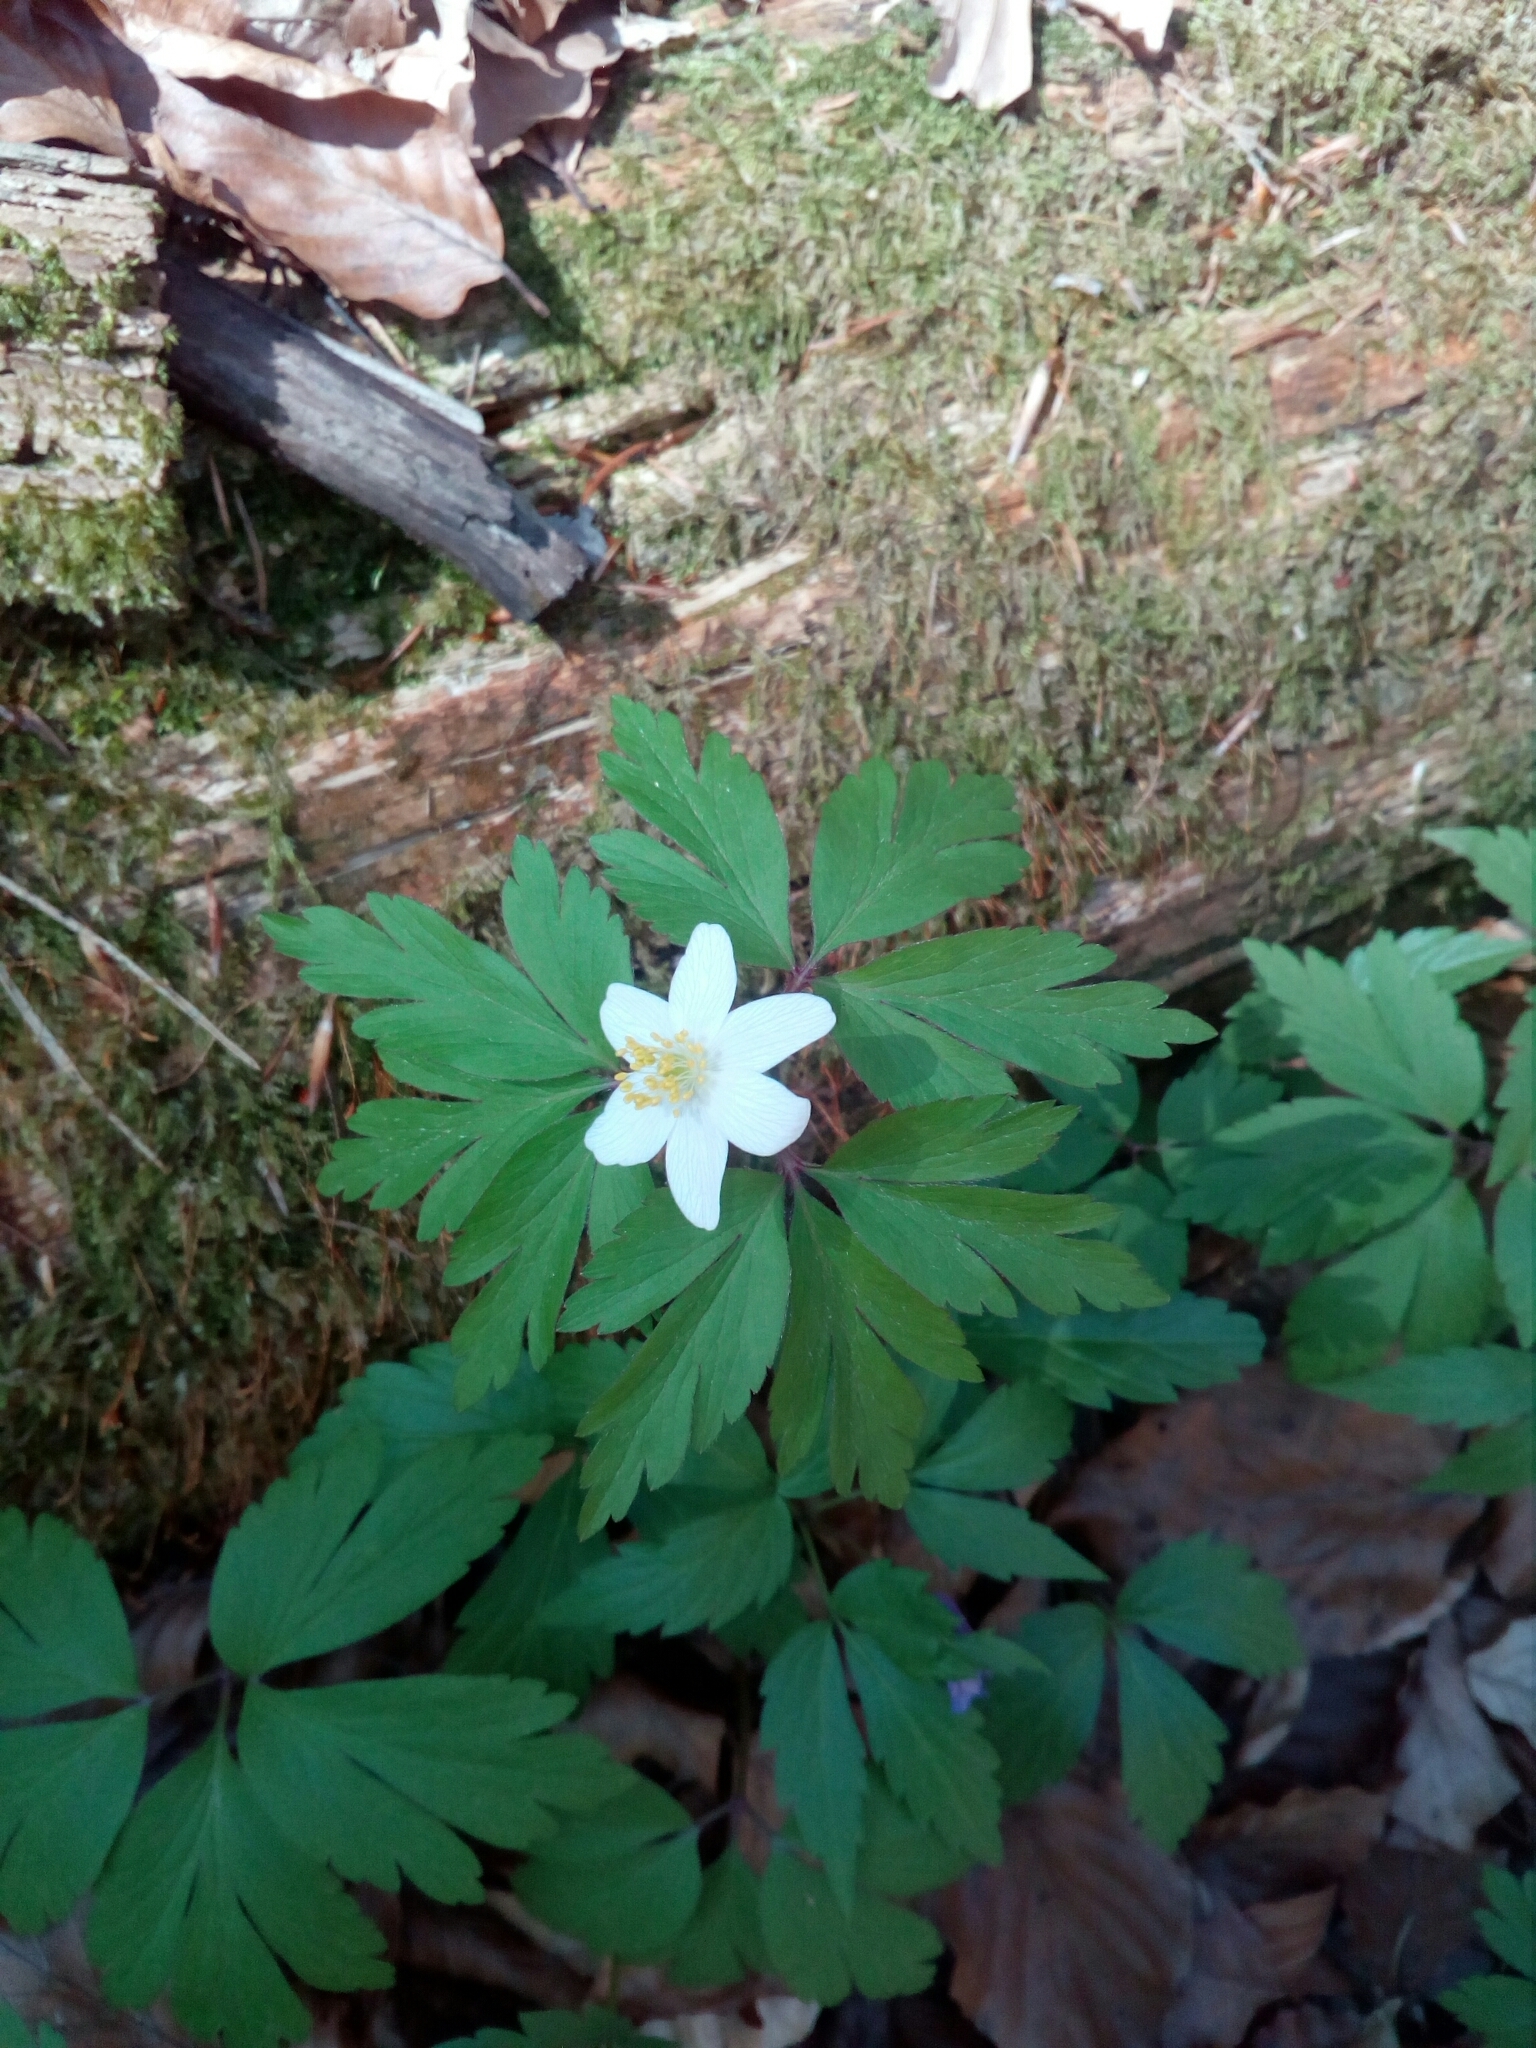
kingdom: Plantae
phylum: Tracheophyta
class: Magnoliopsida
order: Ranunculales
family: Ranunculaceae
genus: Anemone
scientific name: Anemone nemorosa
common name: Wood anemone
